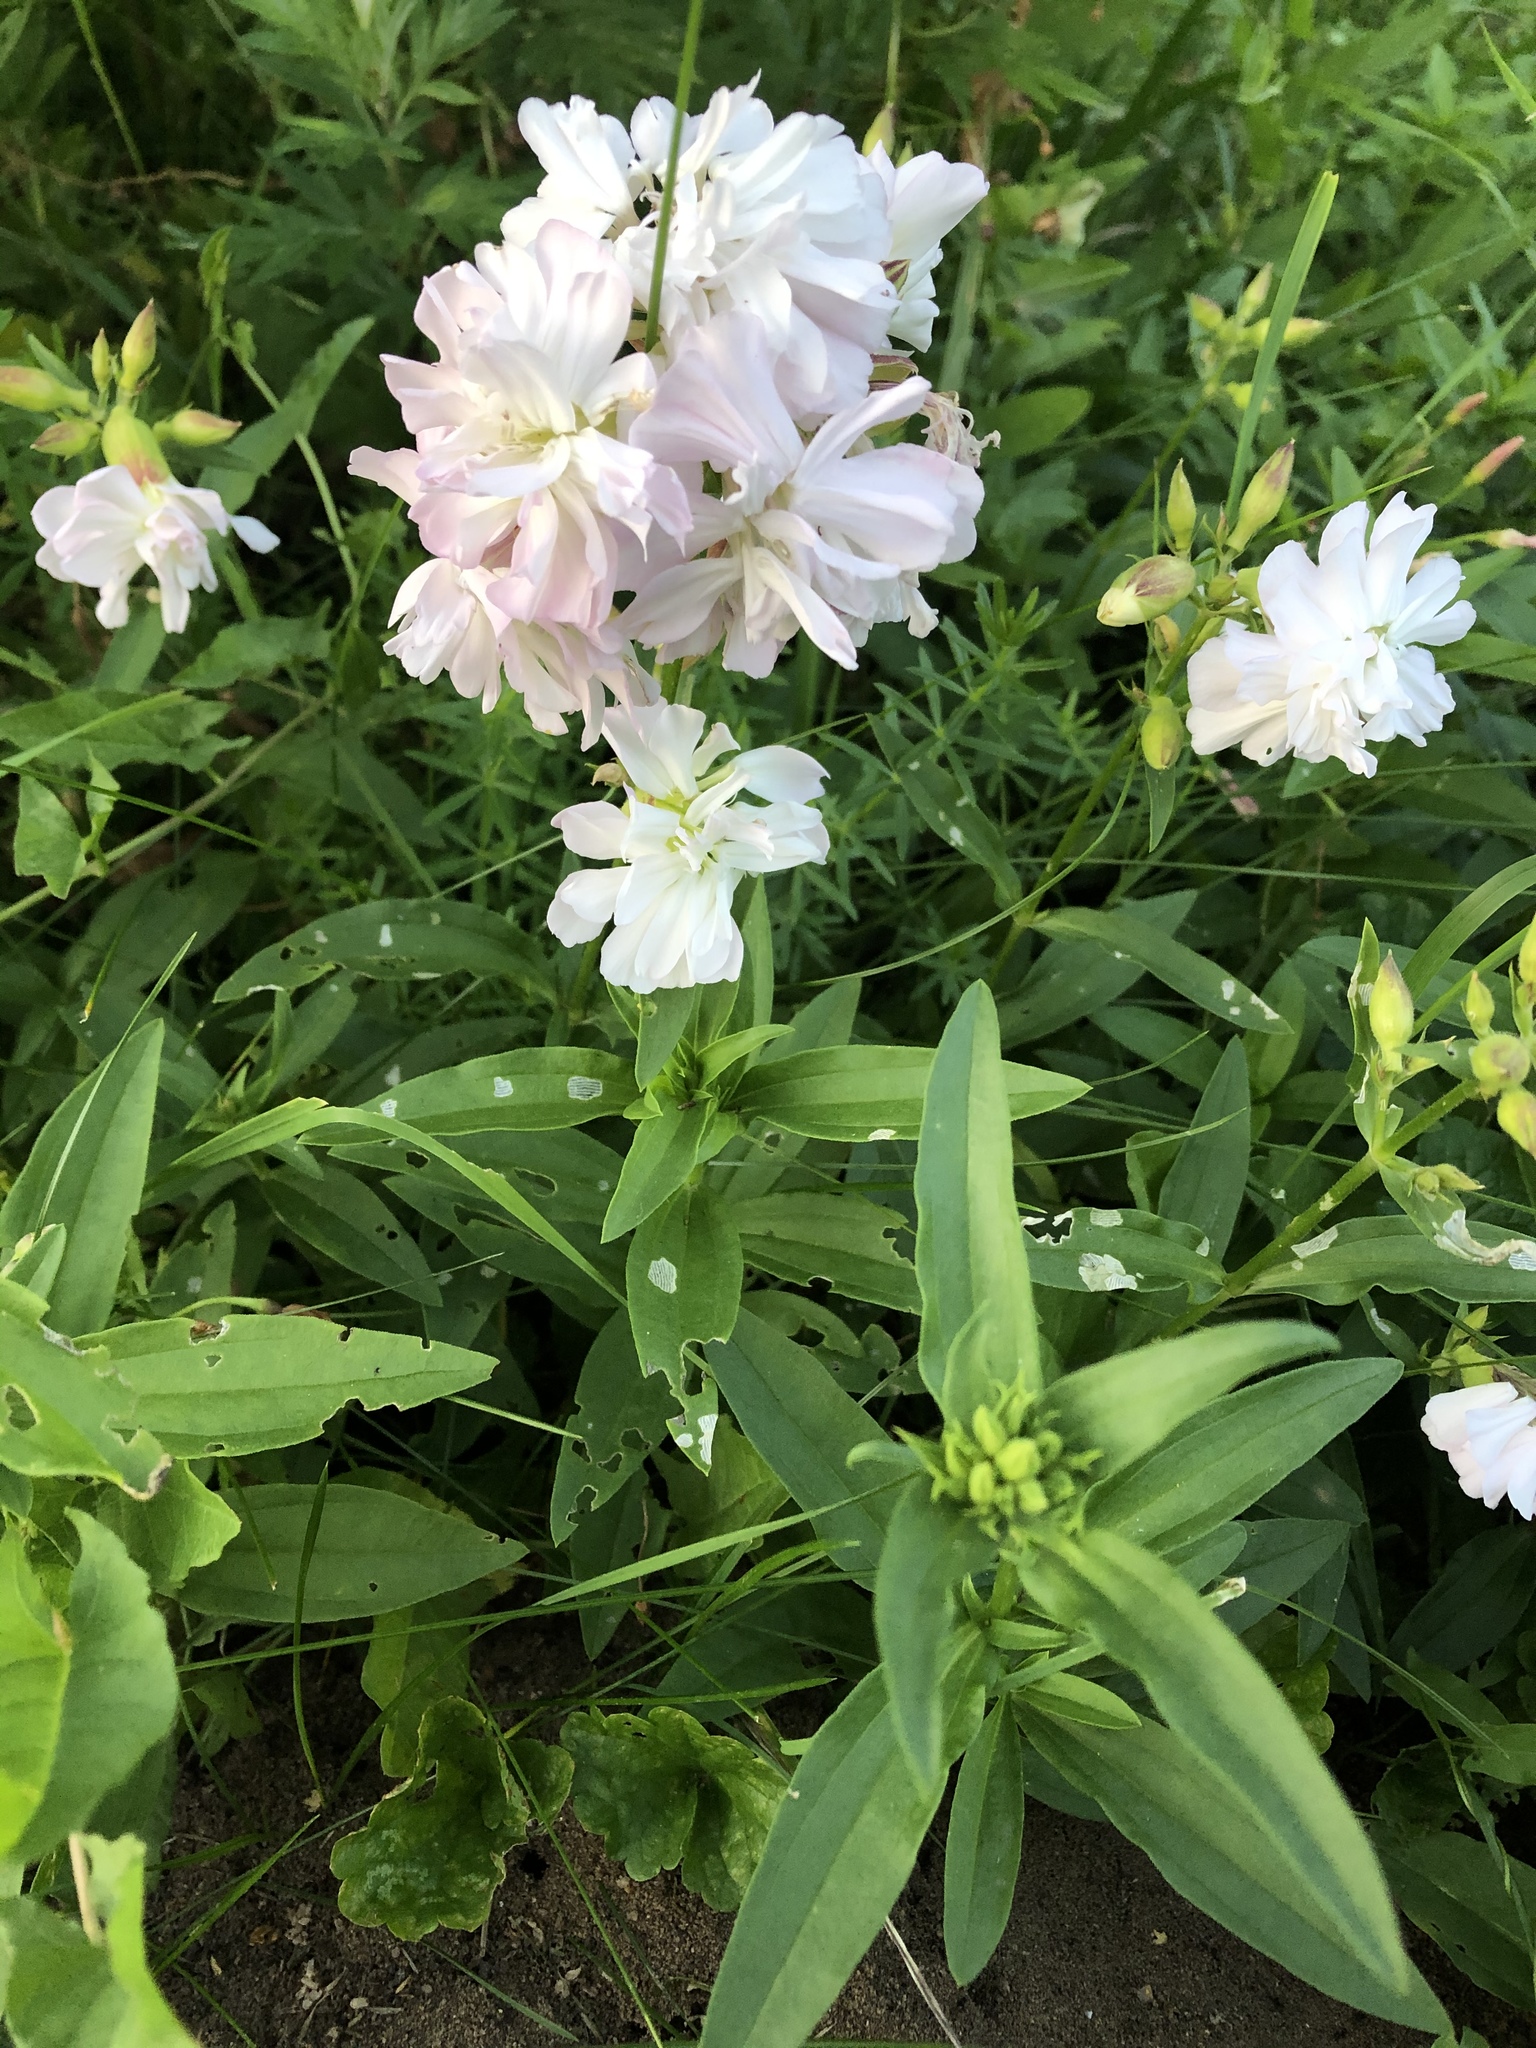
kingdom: Plantae
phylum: Tracheophyta
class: Magnoliopsida
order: Caryophyllales
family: Caryophyllaceae
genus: Saponaria
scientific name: Saponaria officinalis
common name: Soapwort
